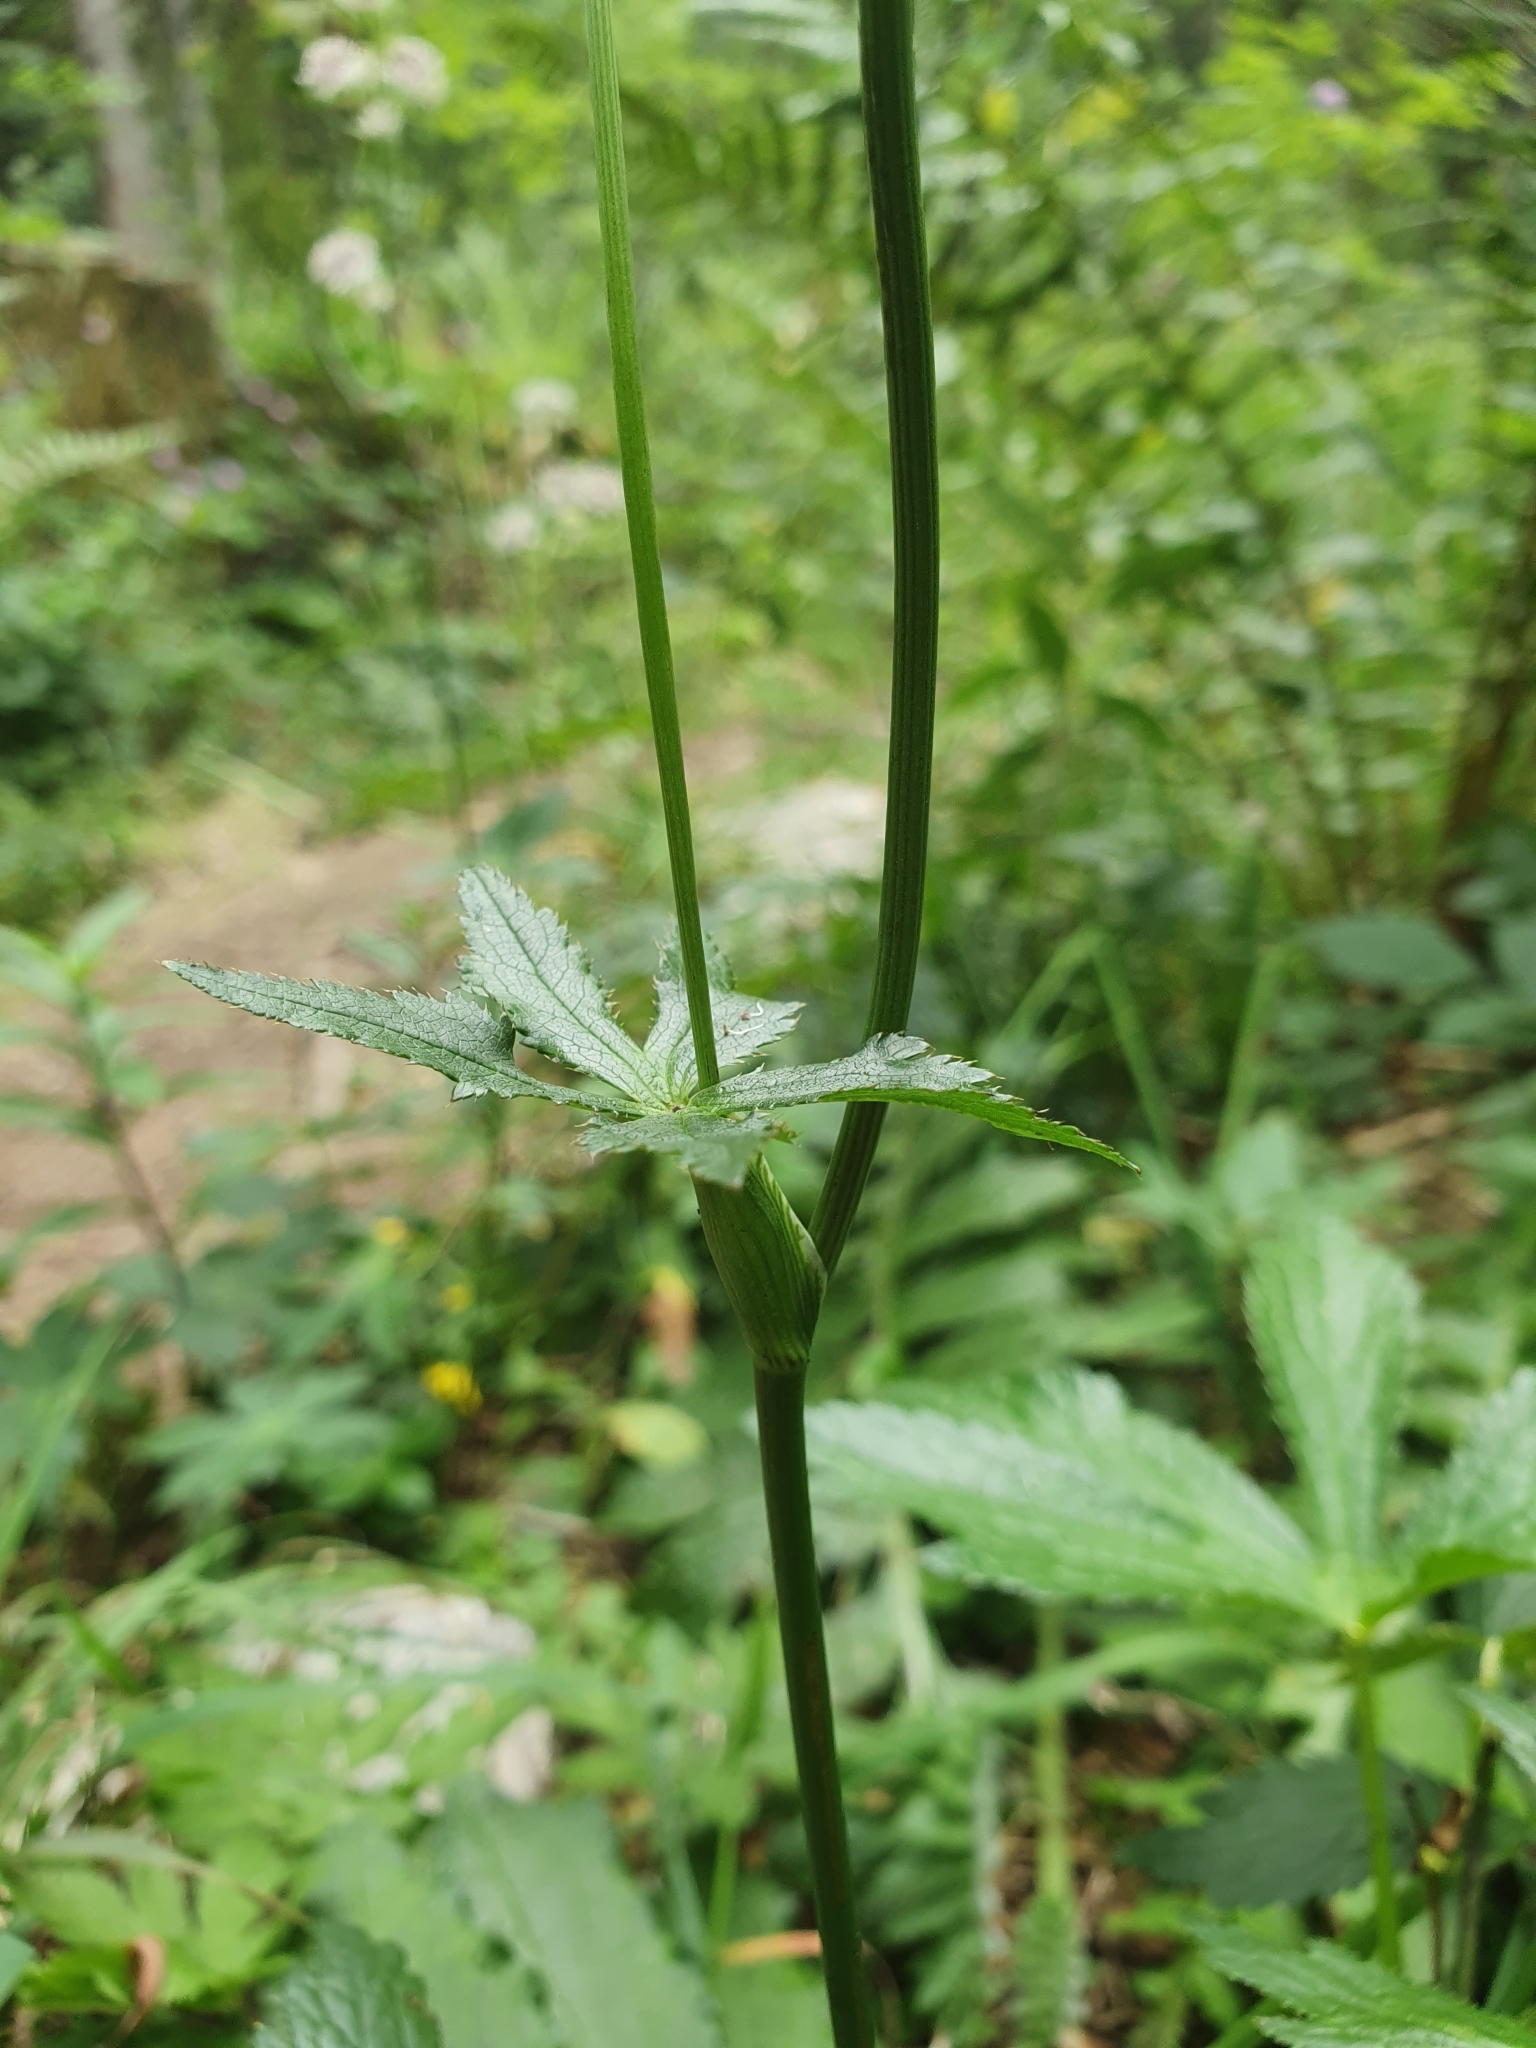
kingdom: Plantae
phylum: Tracheophyta
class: Magnoliopsida
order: Apiales
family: Apiaceae
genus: Astrantia
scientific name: Astrantia major
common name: Greater masterwort
